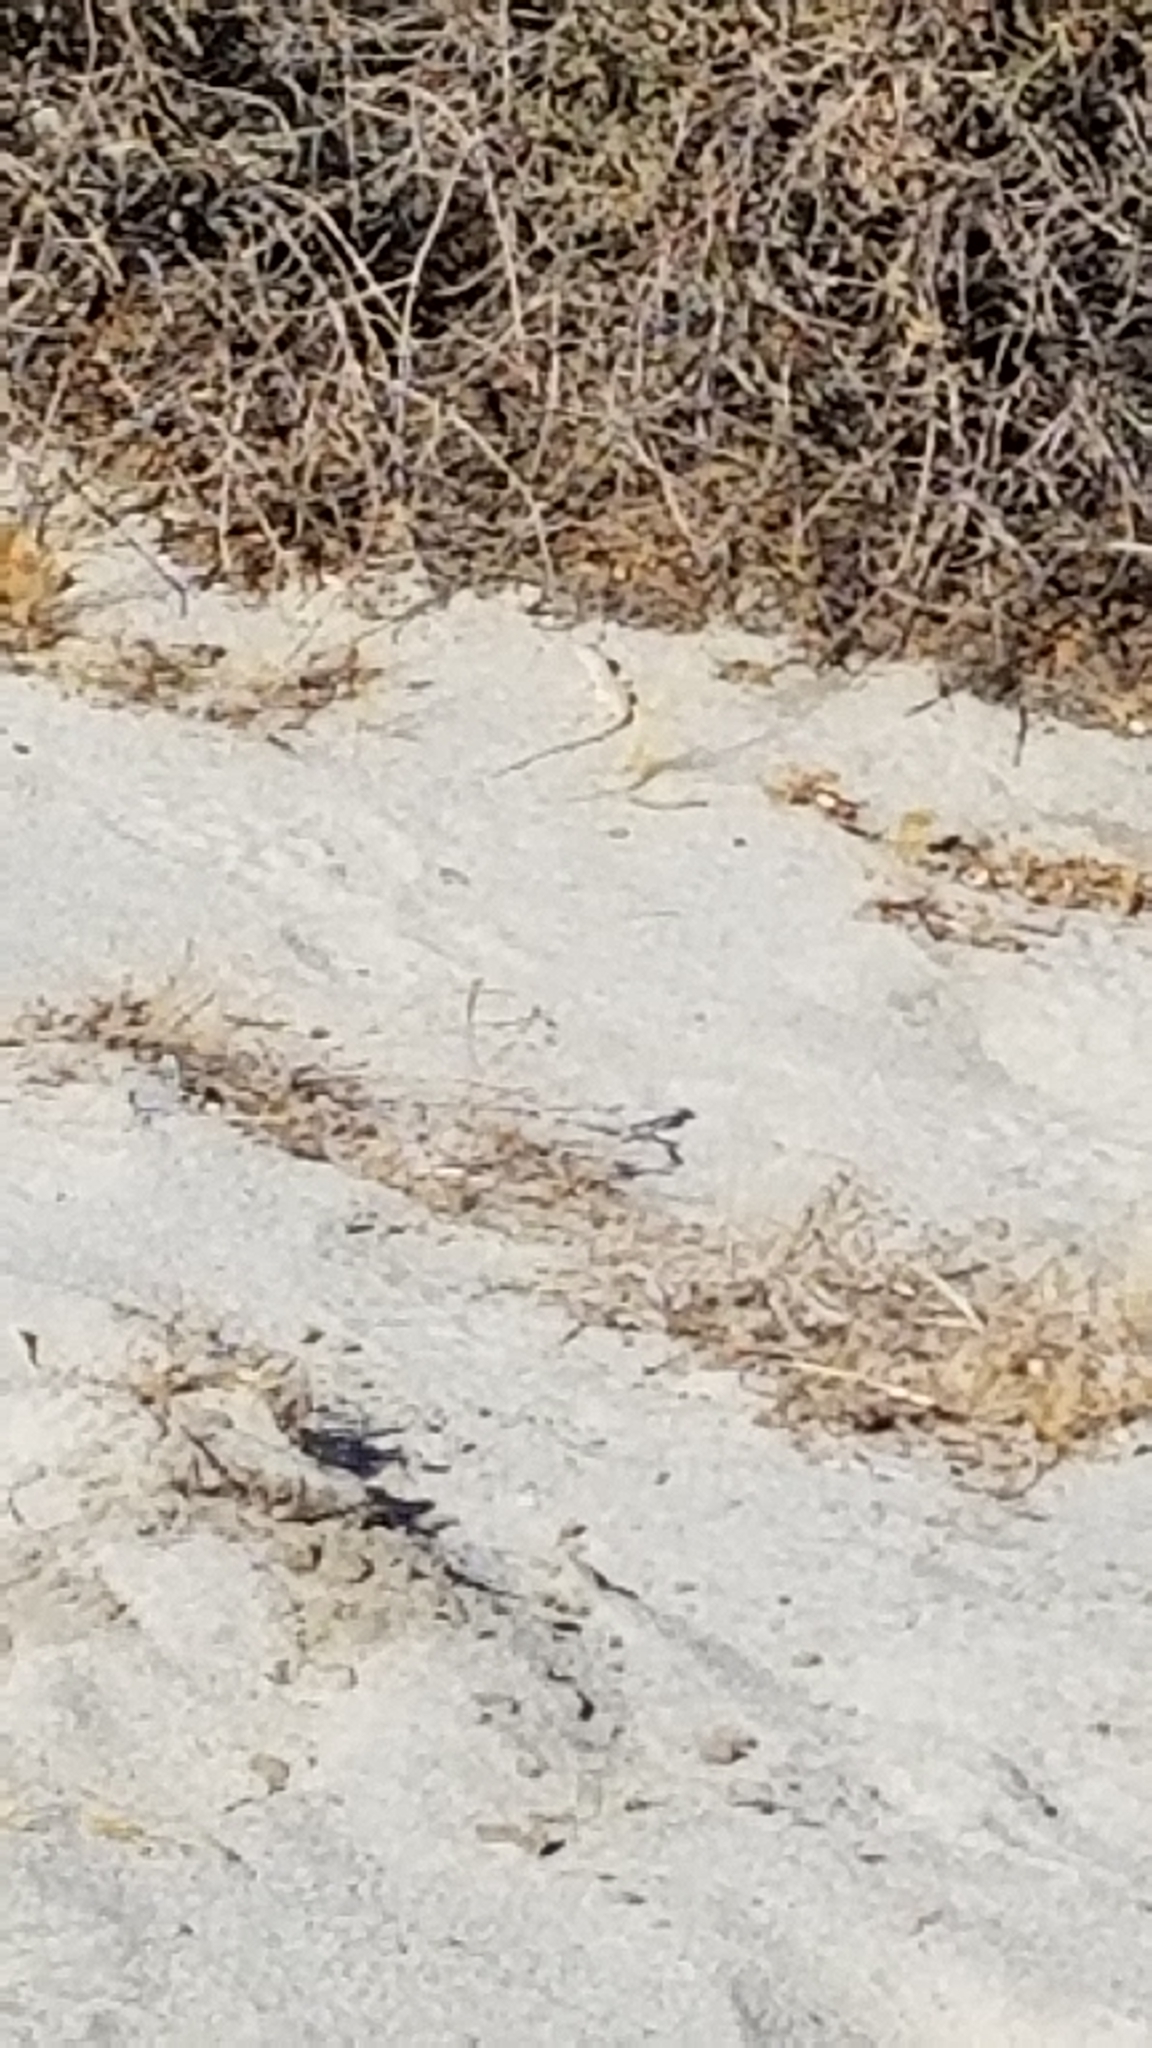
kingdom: Animalia
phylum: Chordata
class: Squamata
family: Iguanidae
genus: Dipsosaurus
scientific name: Dipsosaurus dorsalis
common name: Desert iguana
